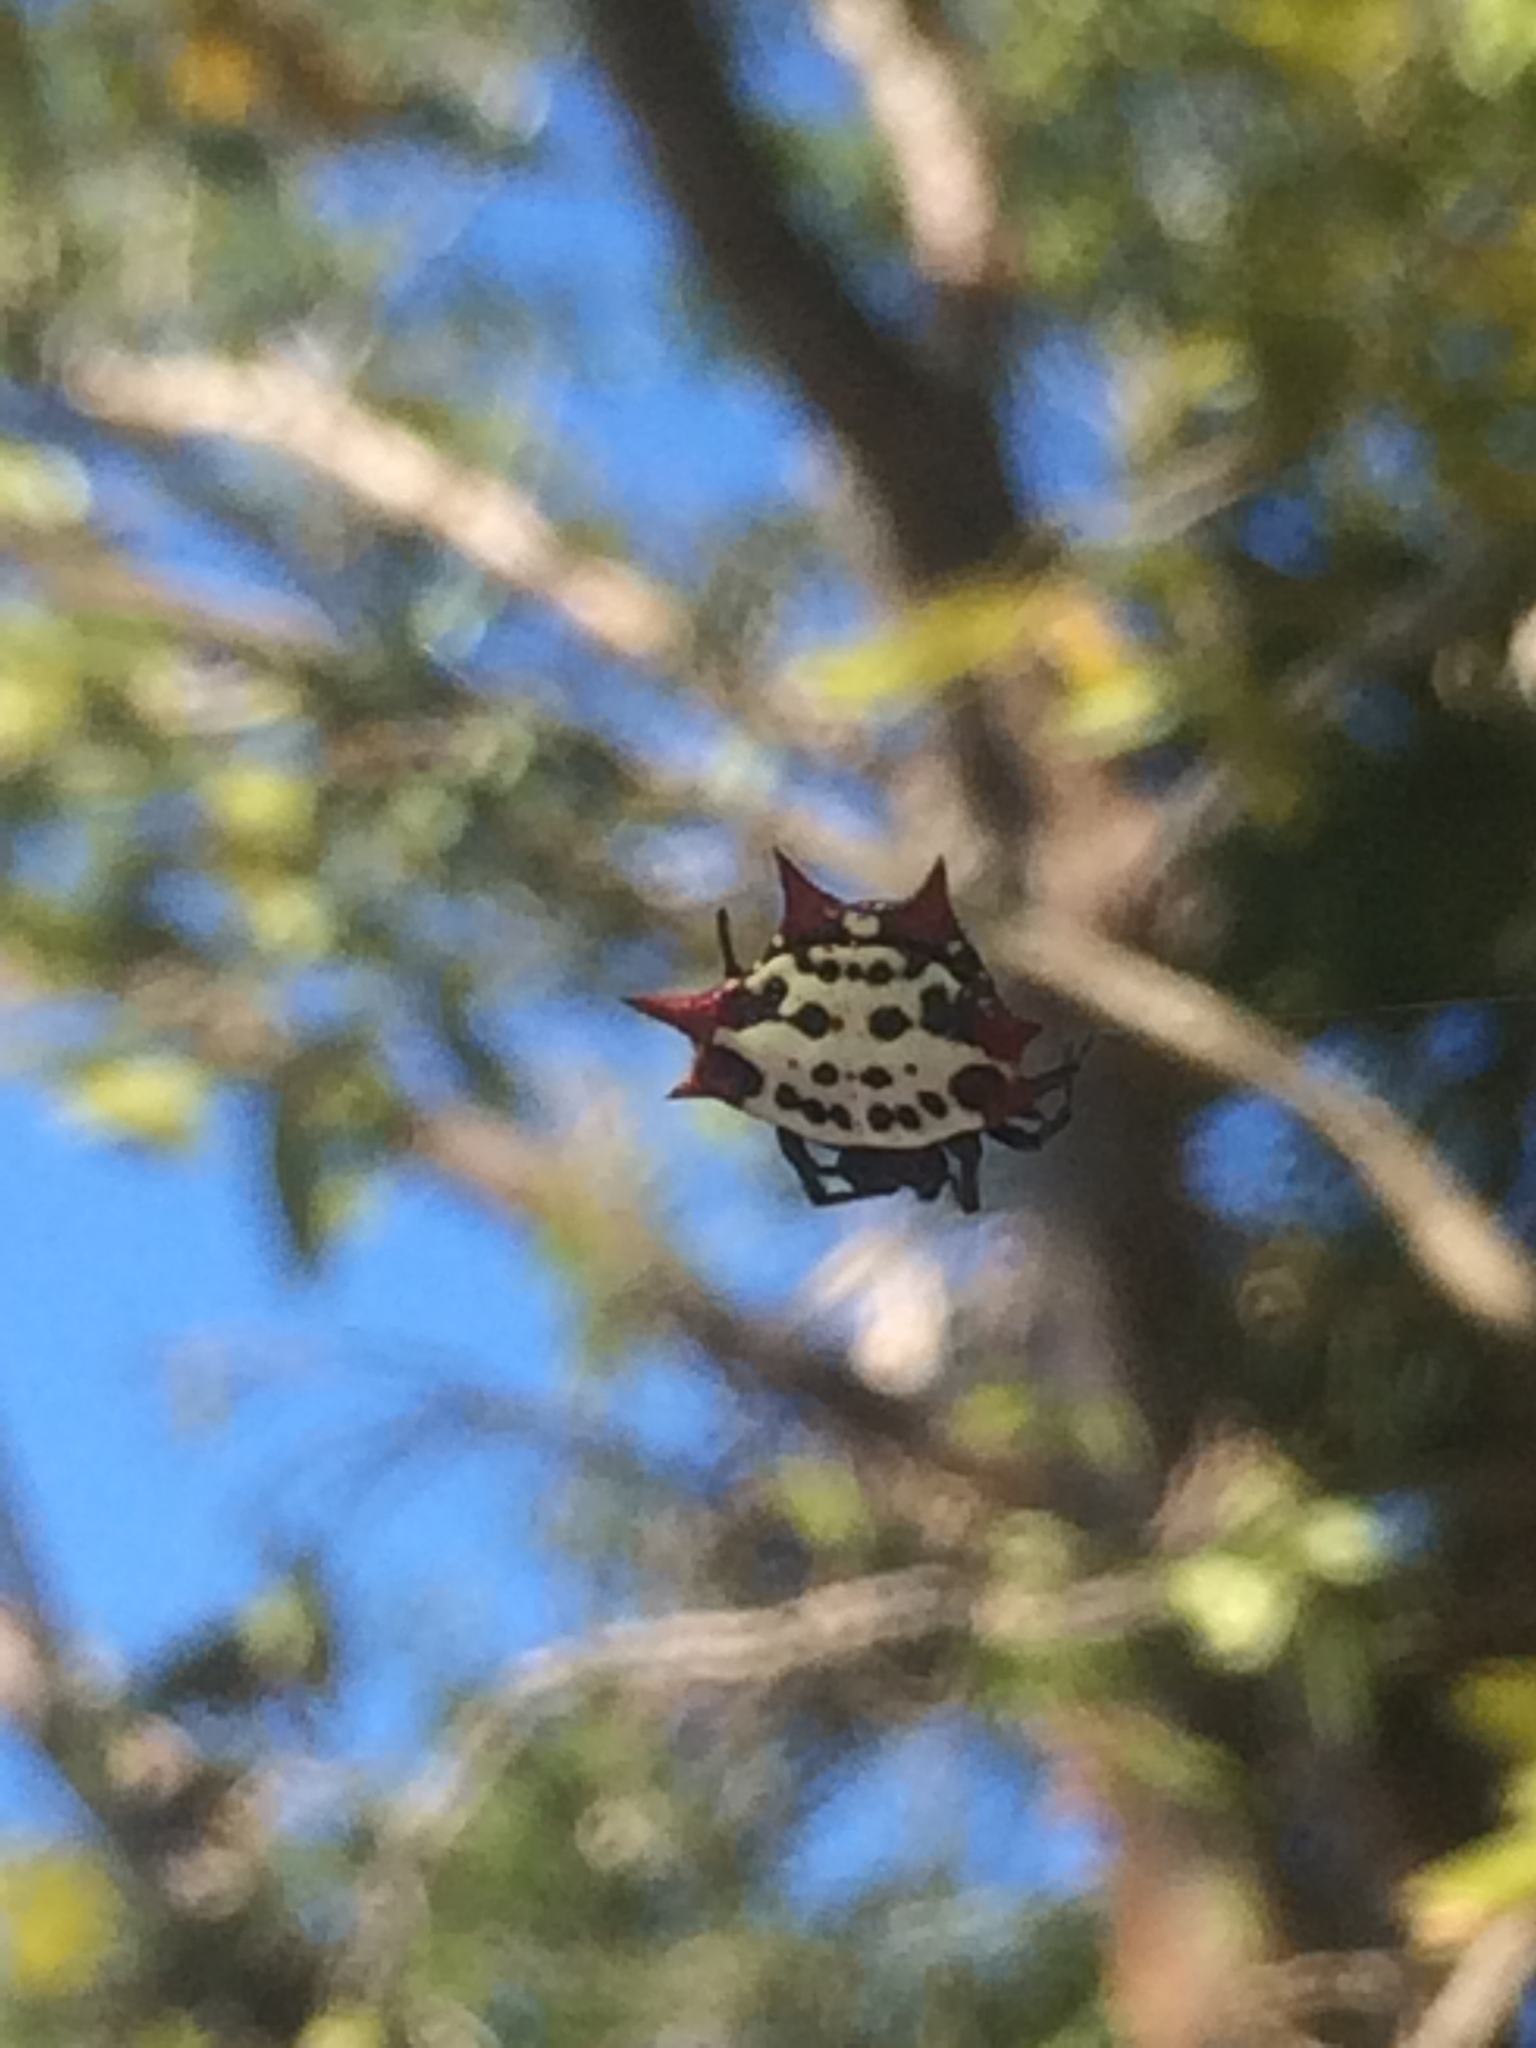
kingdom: Animalia
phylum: Arthropoda
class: Arachnida
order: Araneae
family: Araneidae
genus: Gasteracantha
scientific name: Gasteracantha cancriformis
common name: Orb weavers
